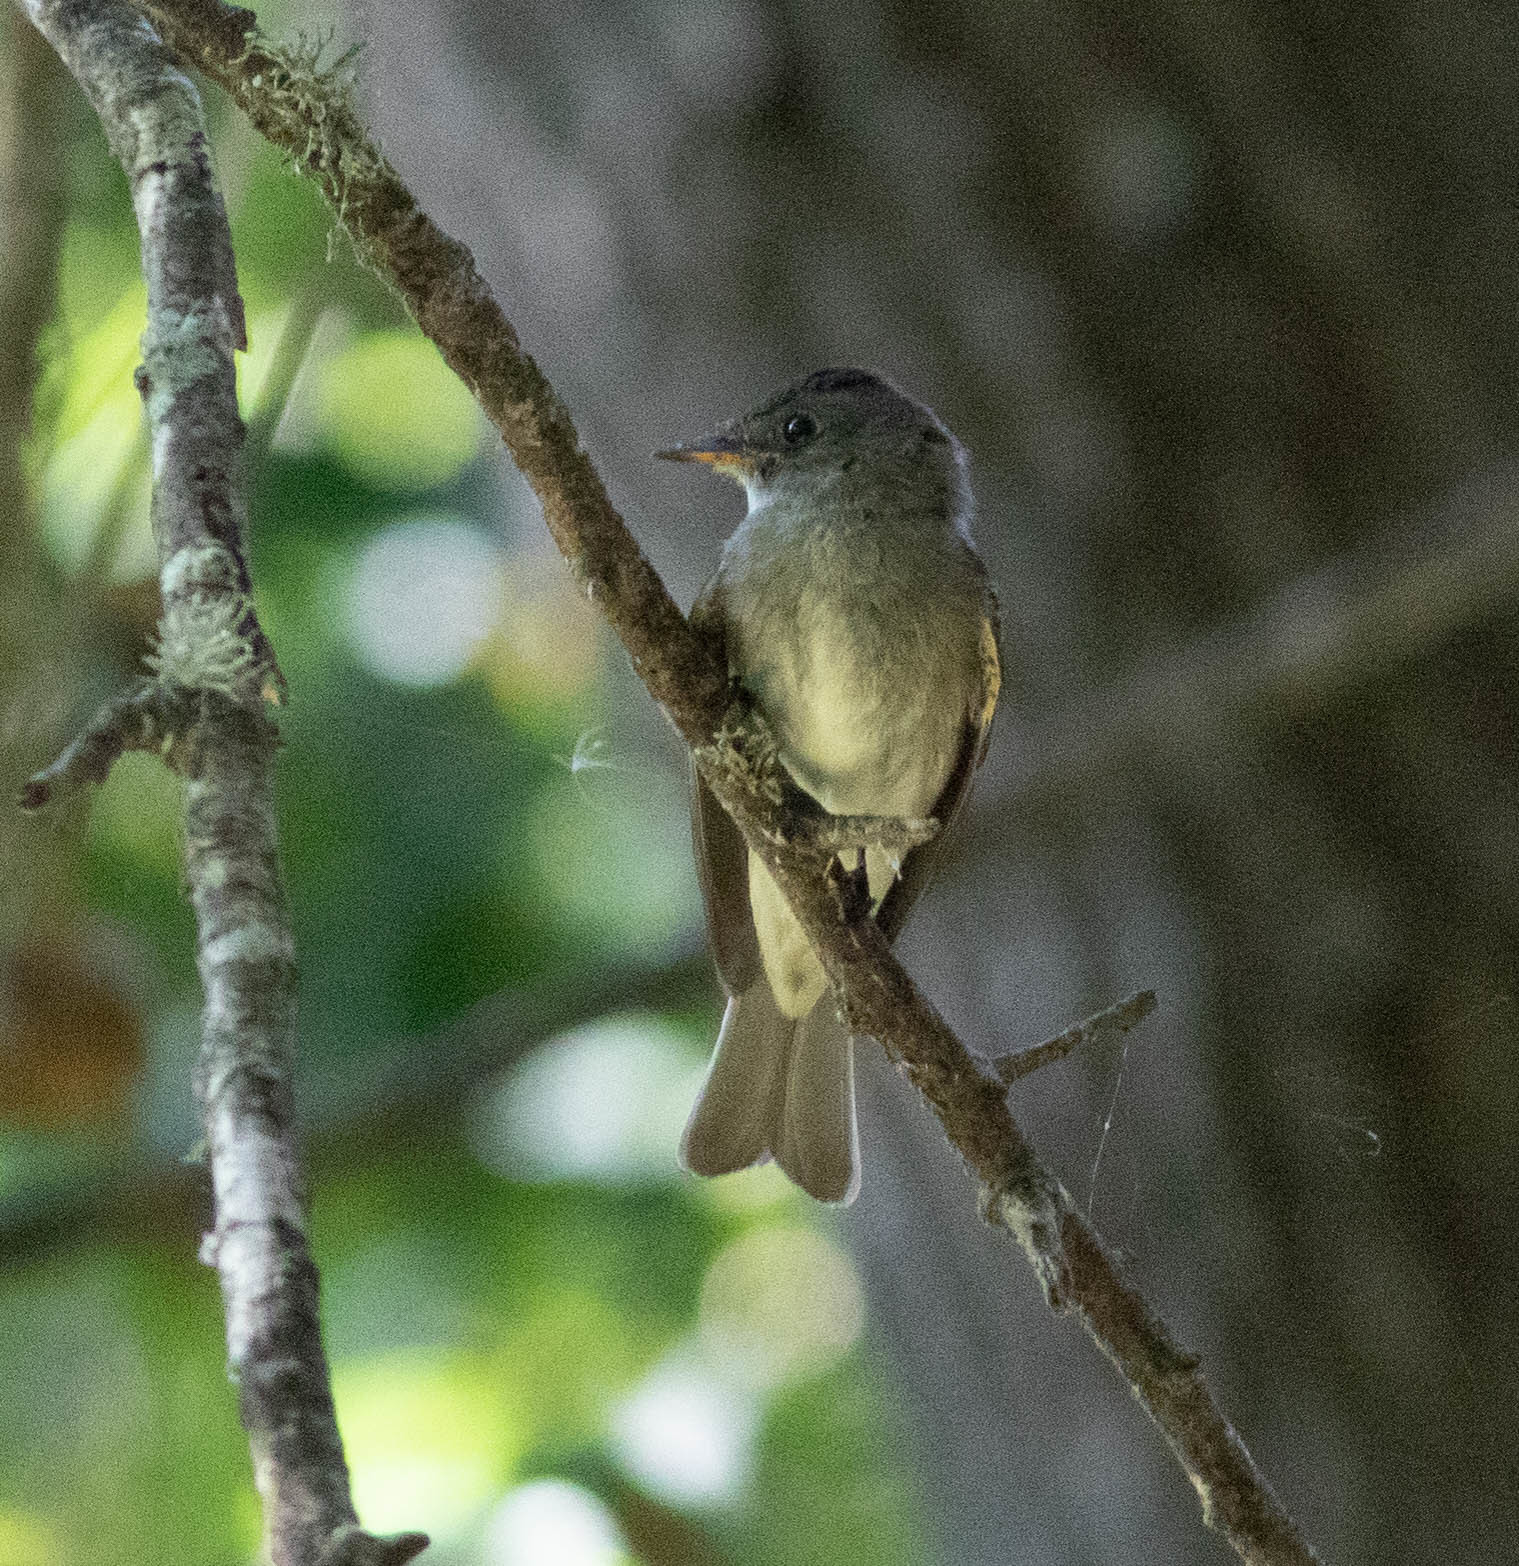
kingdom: Animalia
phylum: Chordata
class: Aves
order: Passeriformes
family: Tyrannidae
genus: Contopus
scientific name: Contopus virens
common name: Eastern wood-pewee
